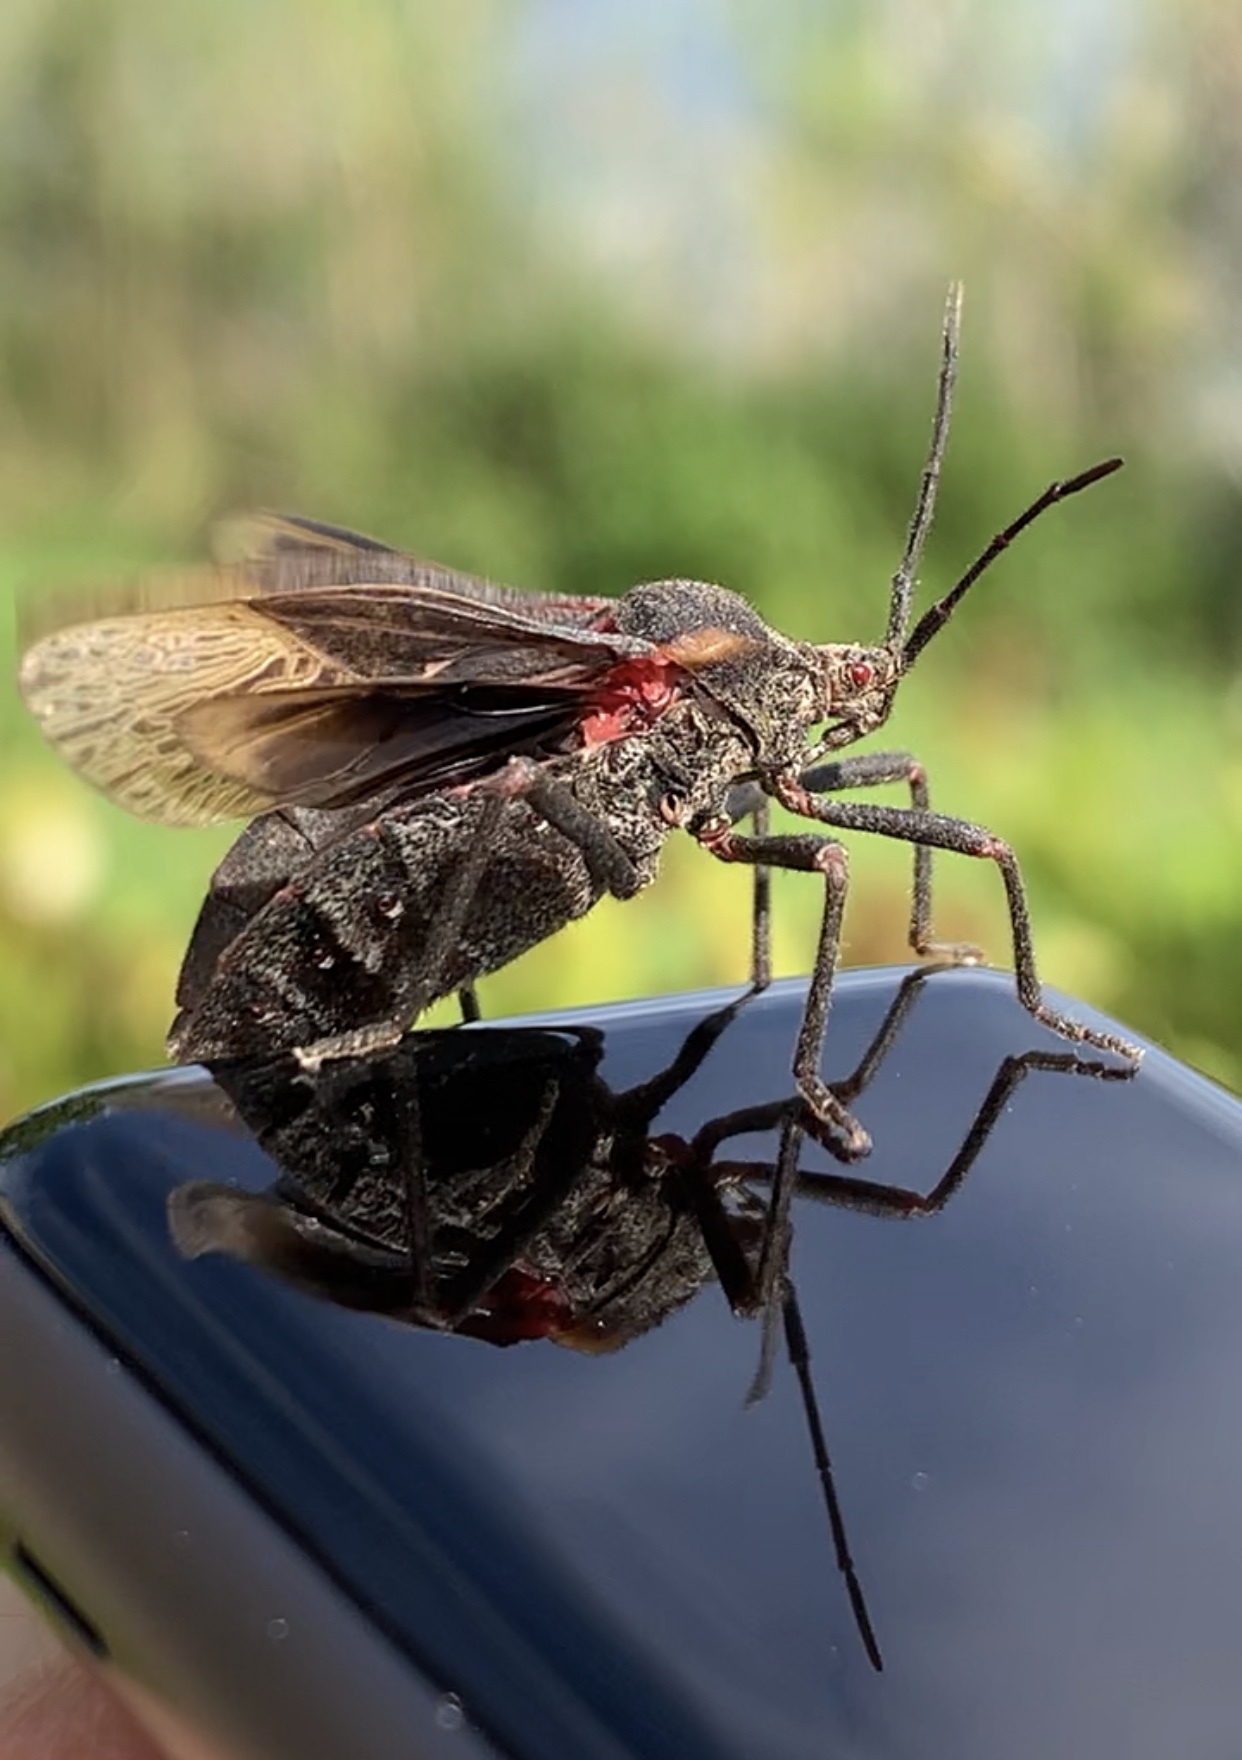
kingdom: Animalia
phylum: Arthropoda
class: Insecta
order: Hemiptera
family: Coreidae
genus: Spartocera
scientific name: Spartocera batatas
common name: Giant sweetpotato bug
